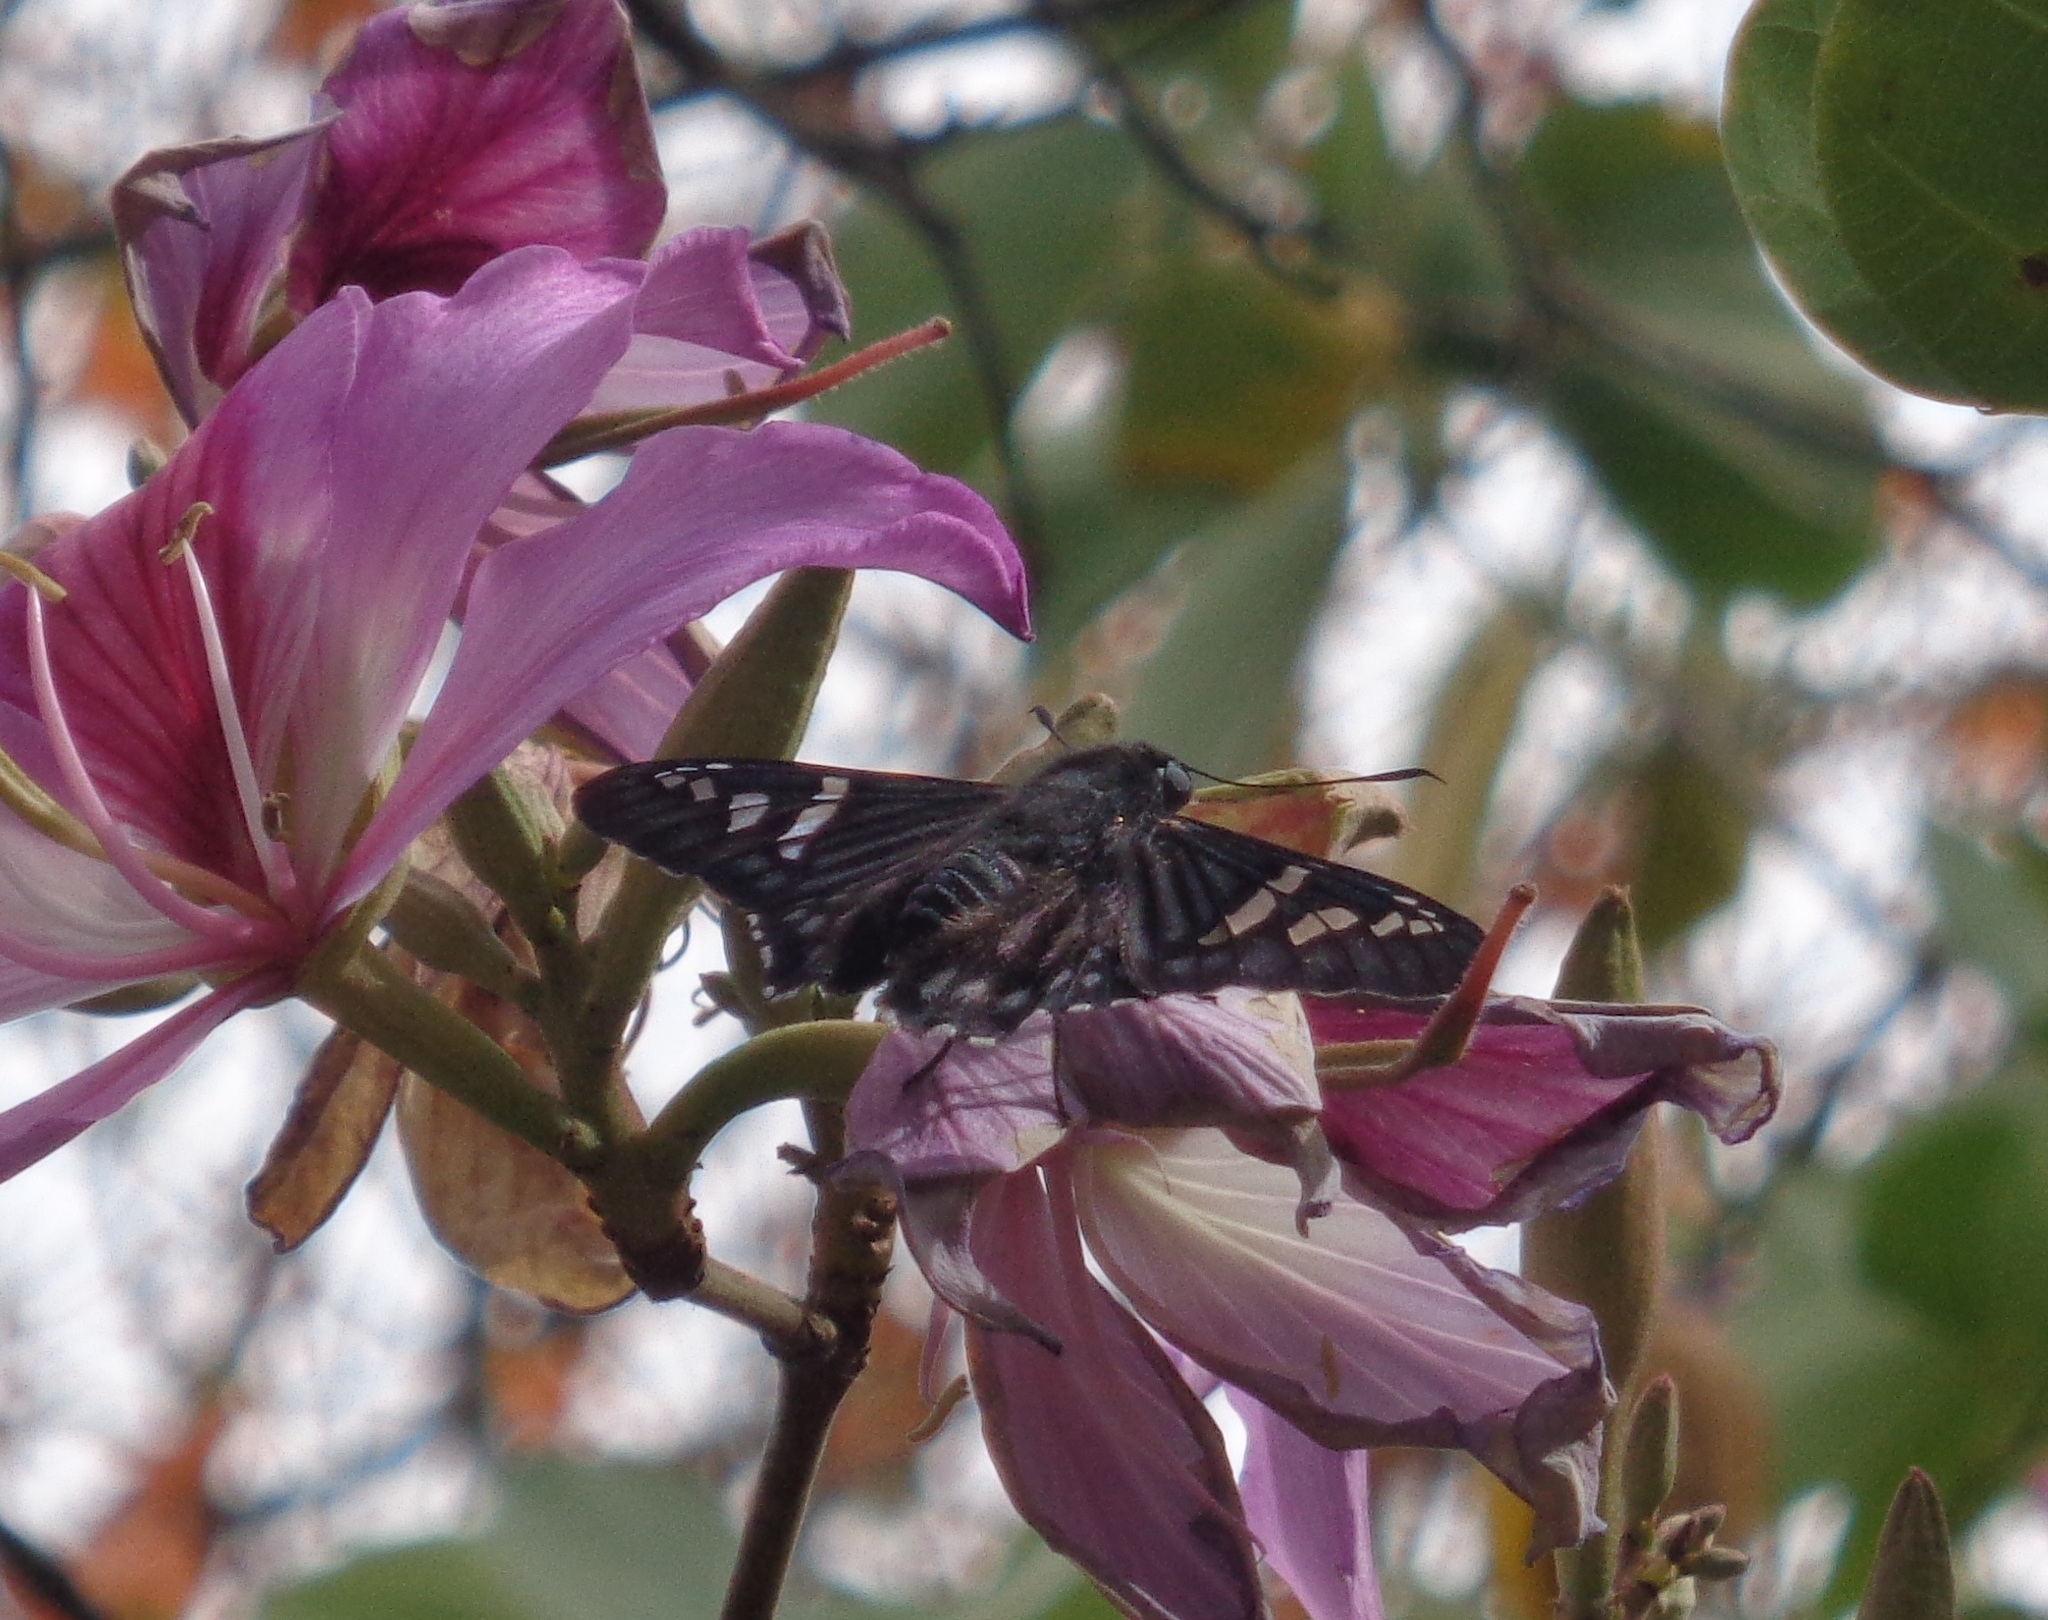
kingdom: Animalia
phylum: Arthropoda
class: Insecta
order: Lepidoptera
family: Hesperiidae
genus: Phocides
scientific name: Phocides urania
